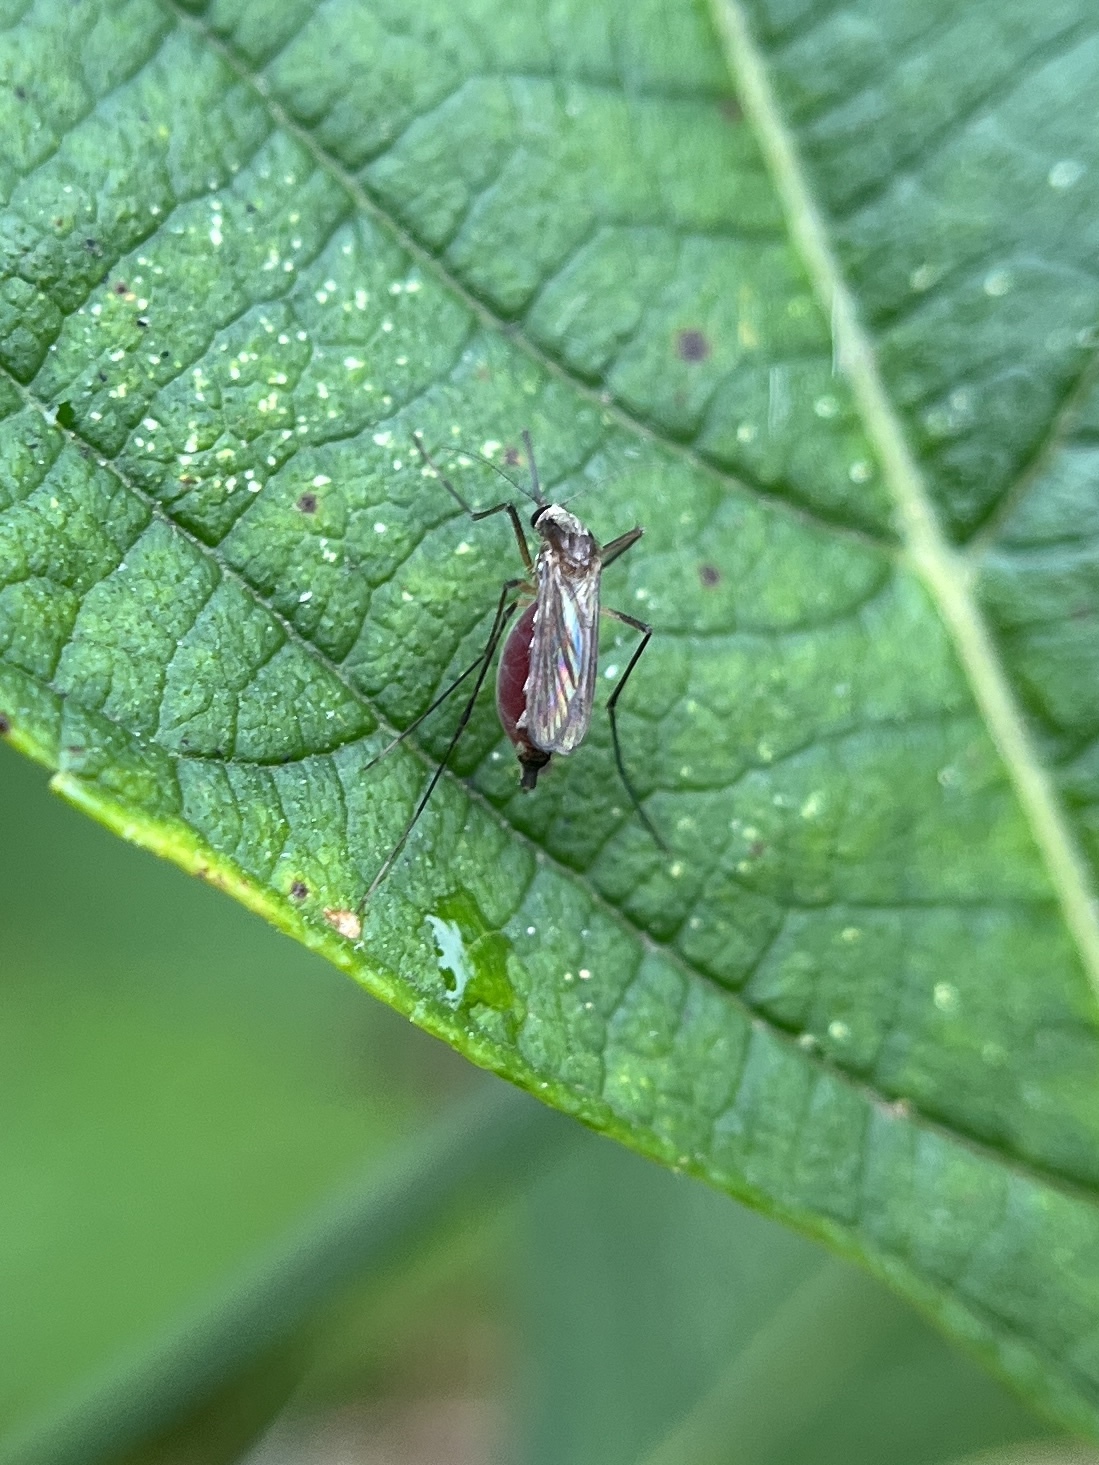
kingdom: Animalia
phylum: Arthropoda
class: Insecta
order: Diptera
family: Culicidae
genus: Aedes
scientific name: Aedes infirmatus
